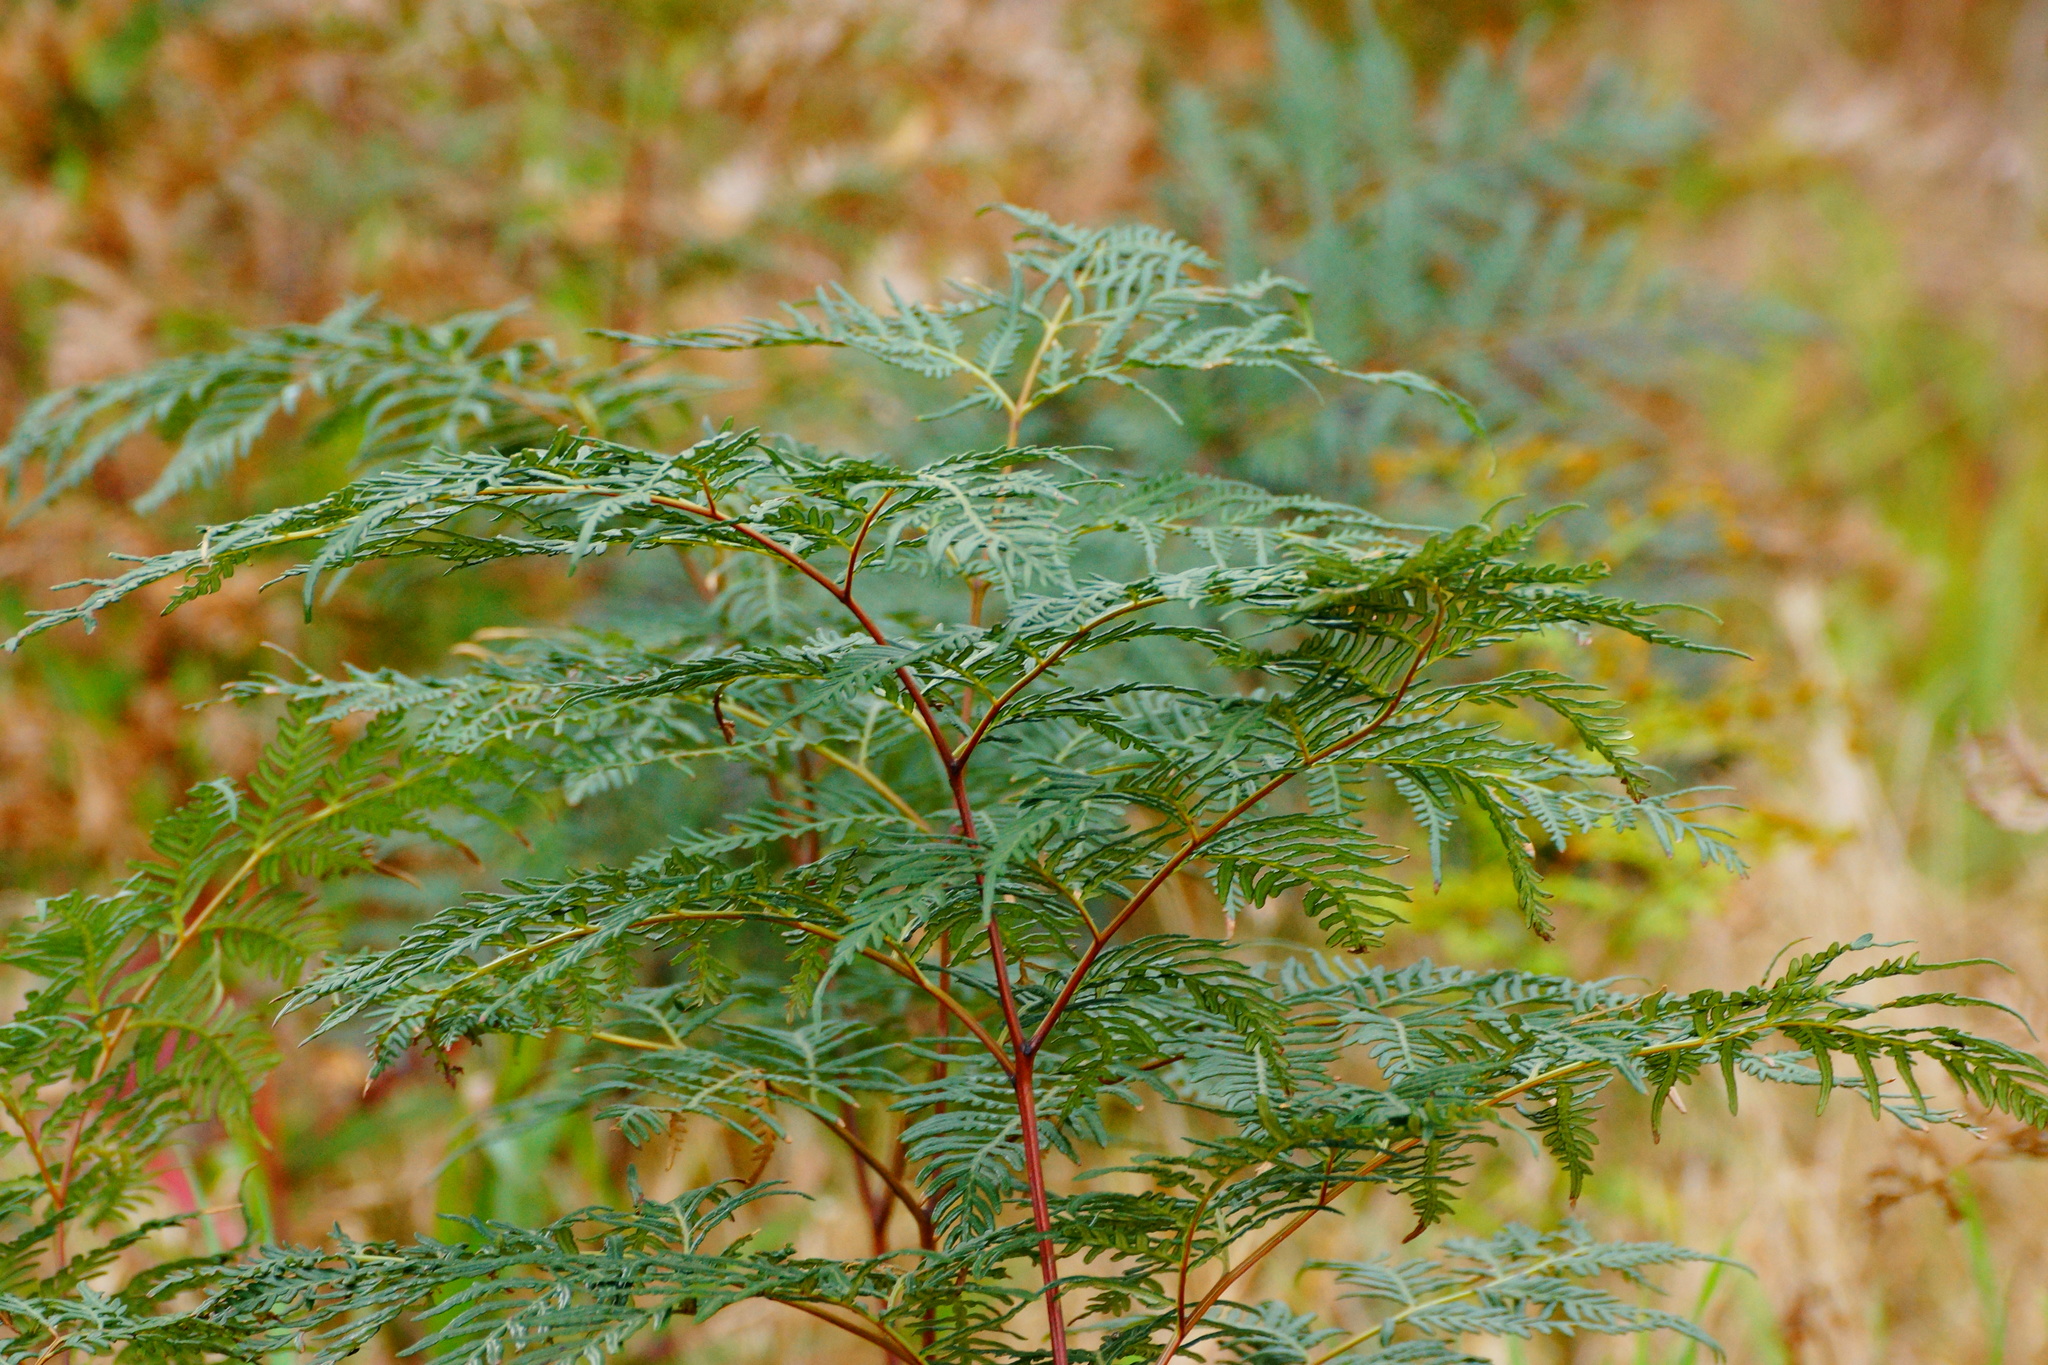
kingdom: Plantae
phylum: Tracheophyta
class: Polypodiopsida
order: Polypodiales
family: Dennstaedtiaceae
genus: Pteridium
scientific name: Pteridium esculentum
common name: Bracken fern
